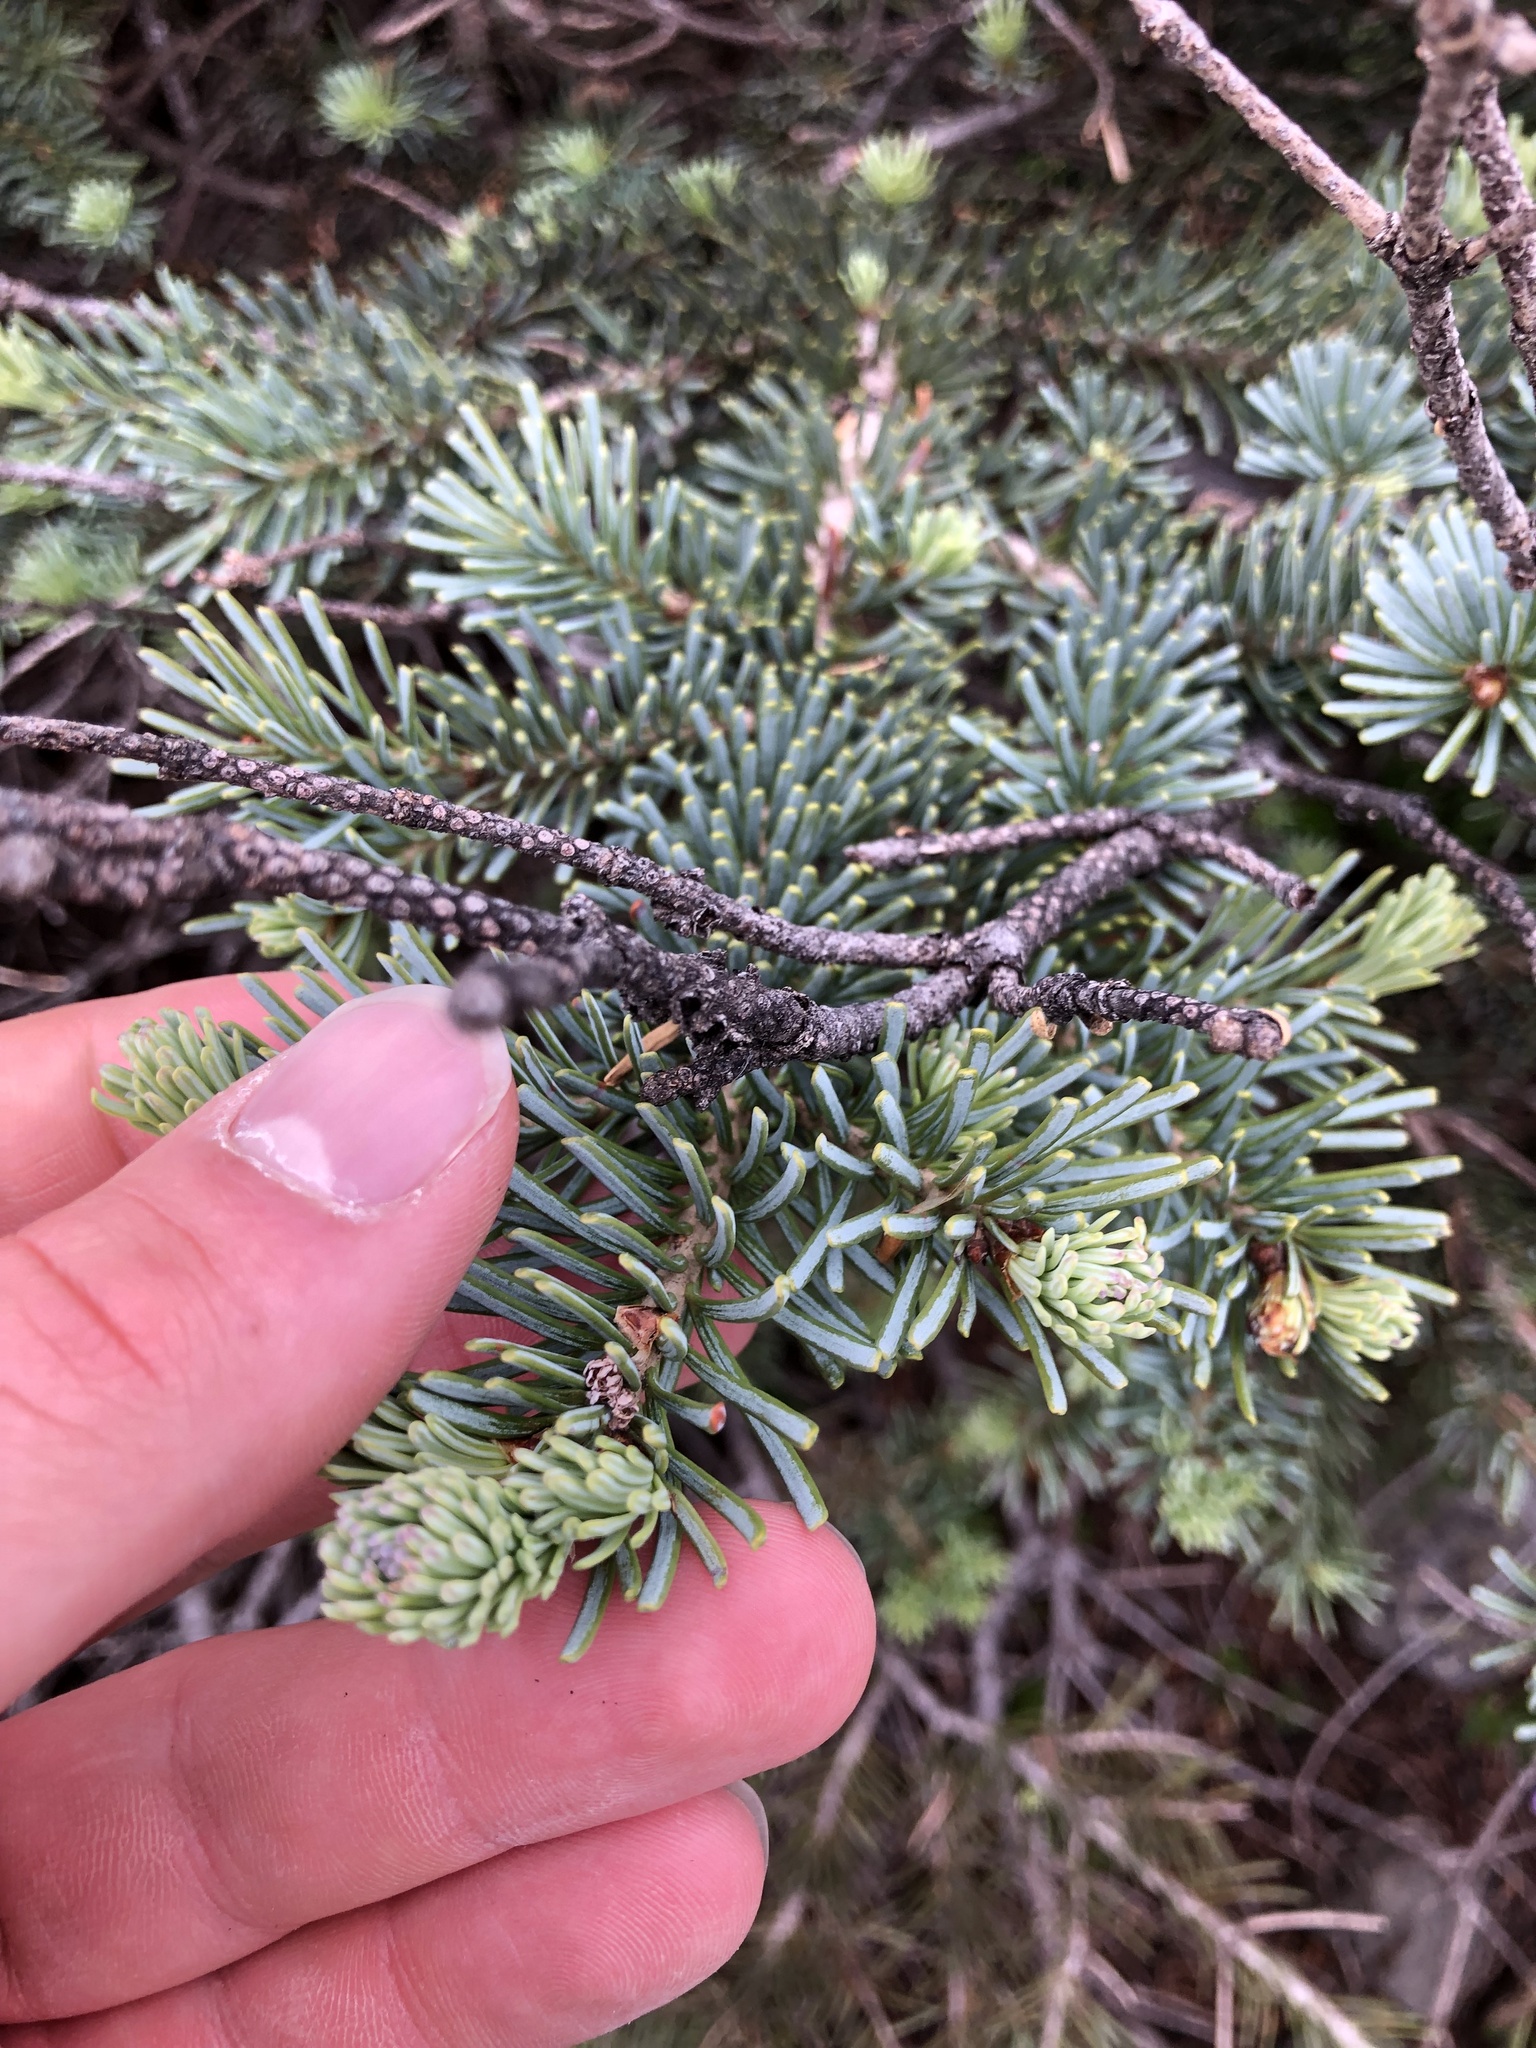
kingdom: Plantae
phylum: Tracheophyta
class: Pinopsida
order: Pinales
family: Pinaceae
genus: Abies
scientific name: Abies lasiocarpa
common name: Subalpine fir
